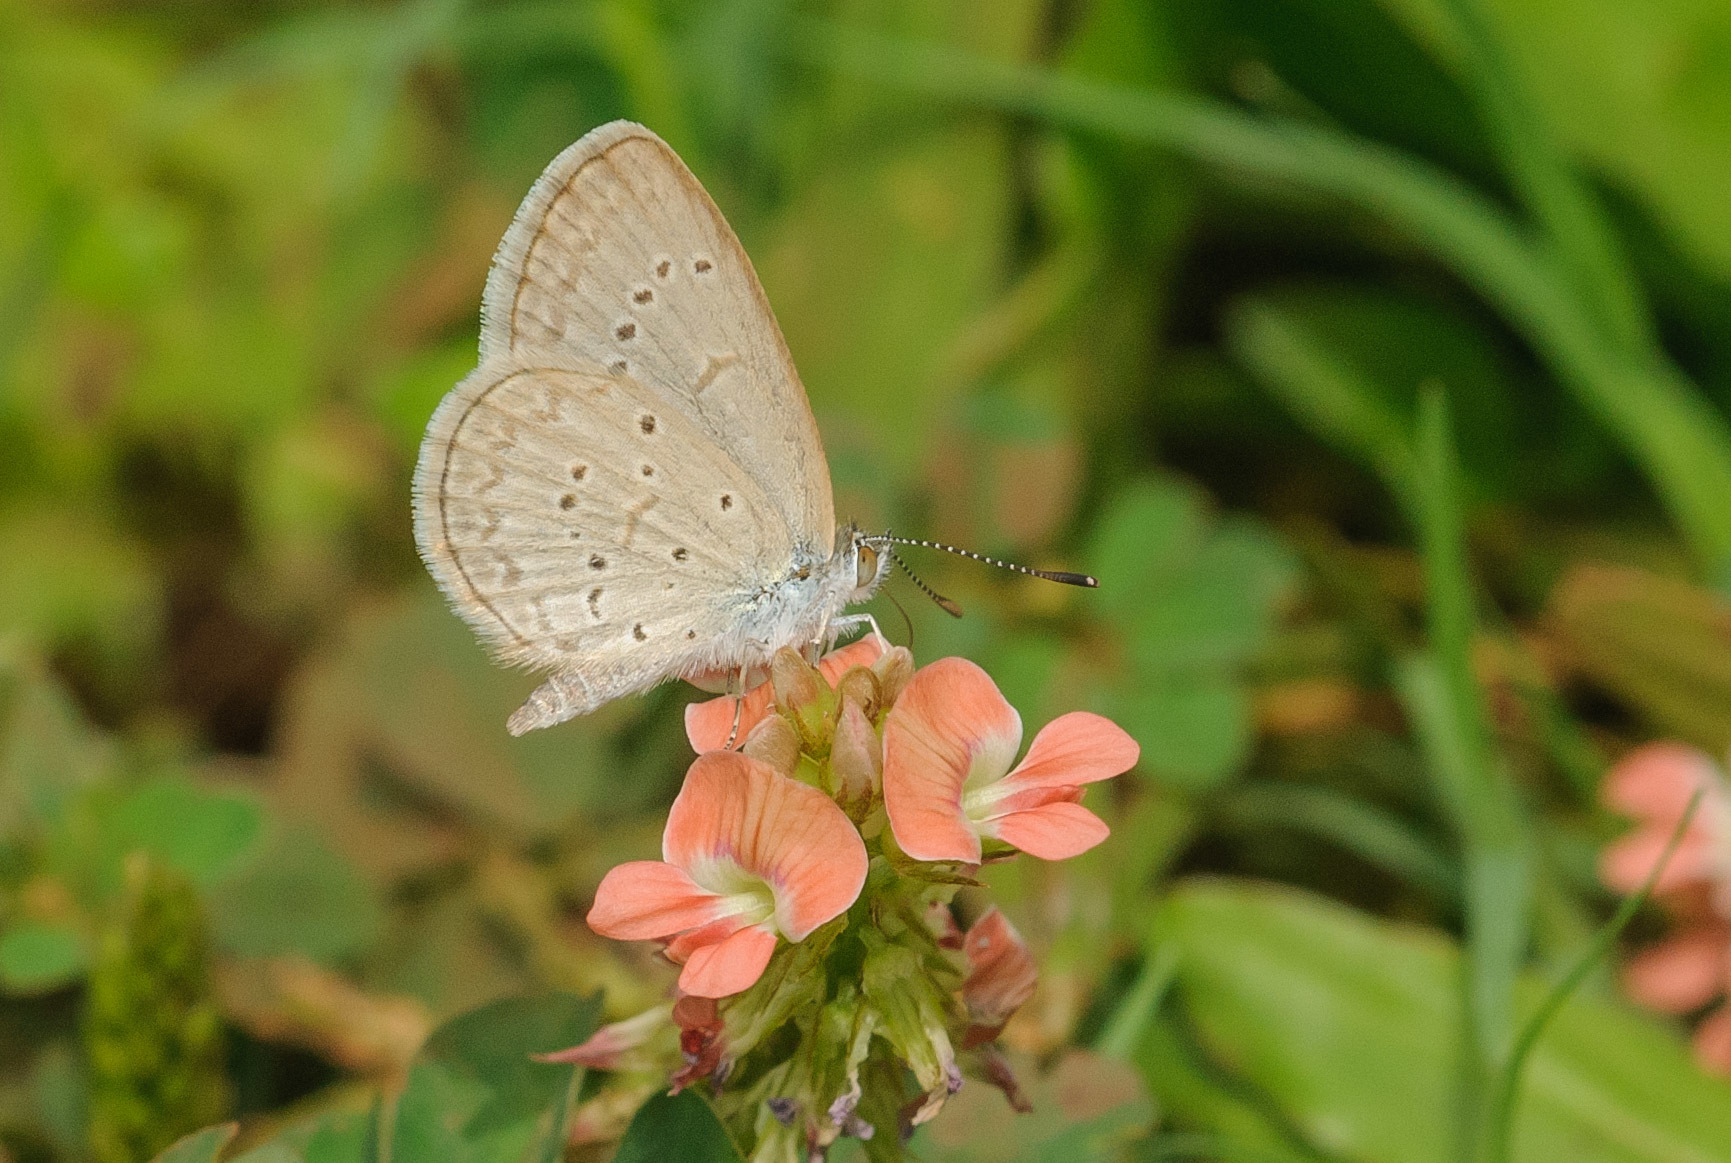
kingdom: Animalia
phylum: Arthropoda
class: Insecta
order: Lepidoptera
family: Lycaenidae
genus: Zizina
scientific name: Zizina otis
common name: Lesser grass blue
